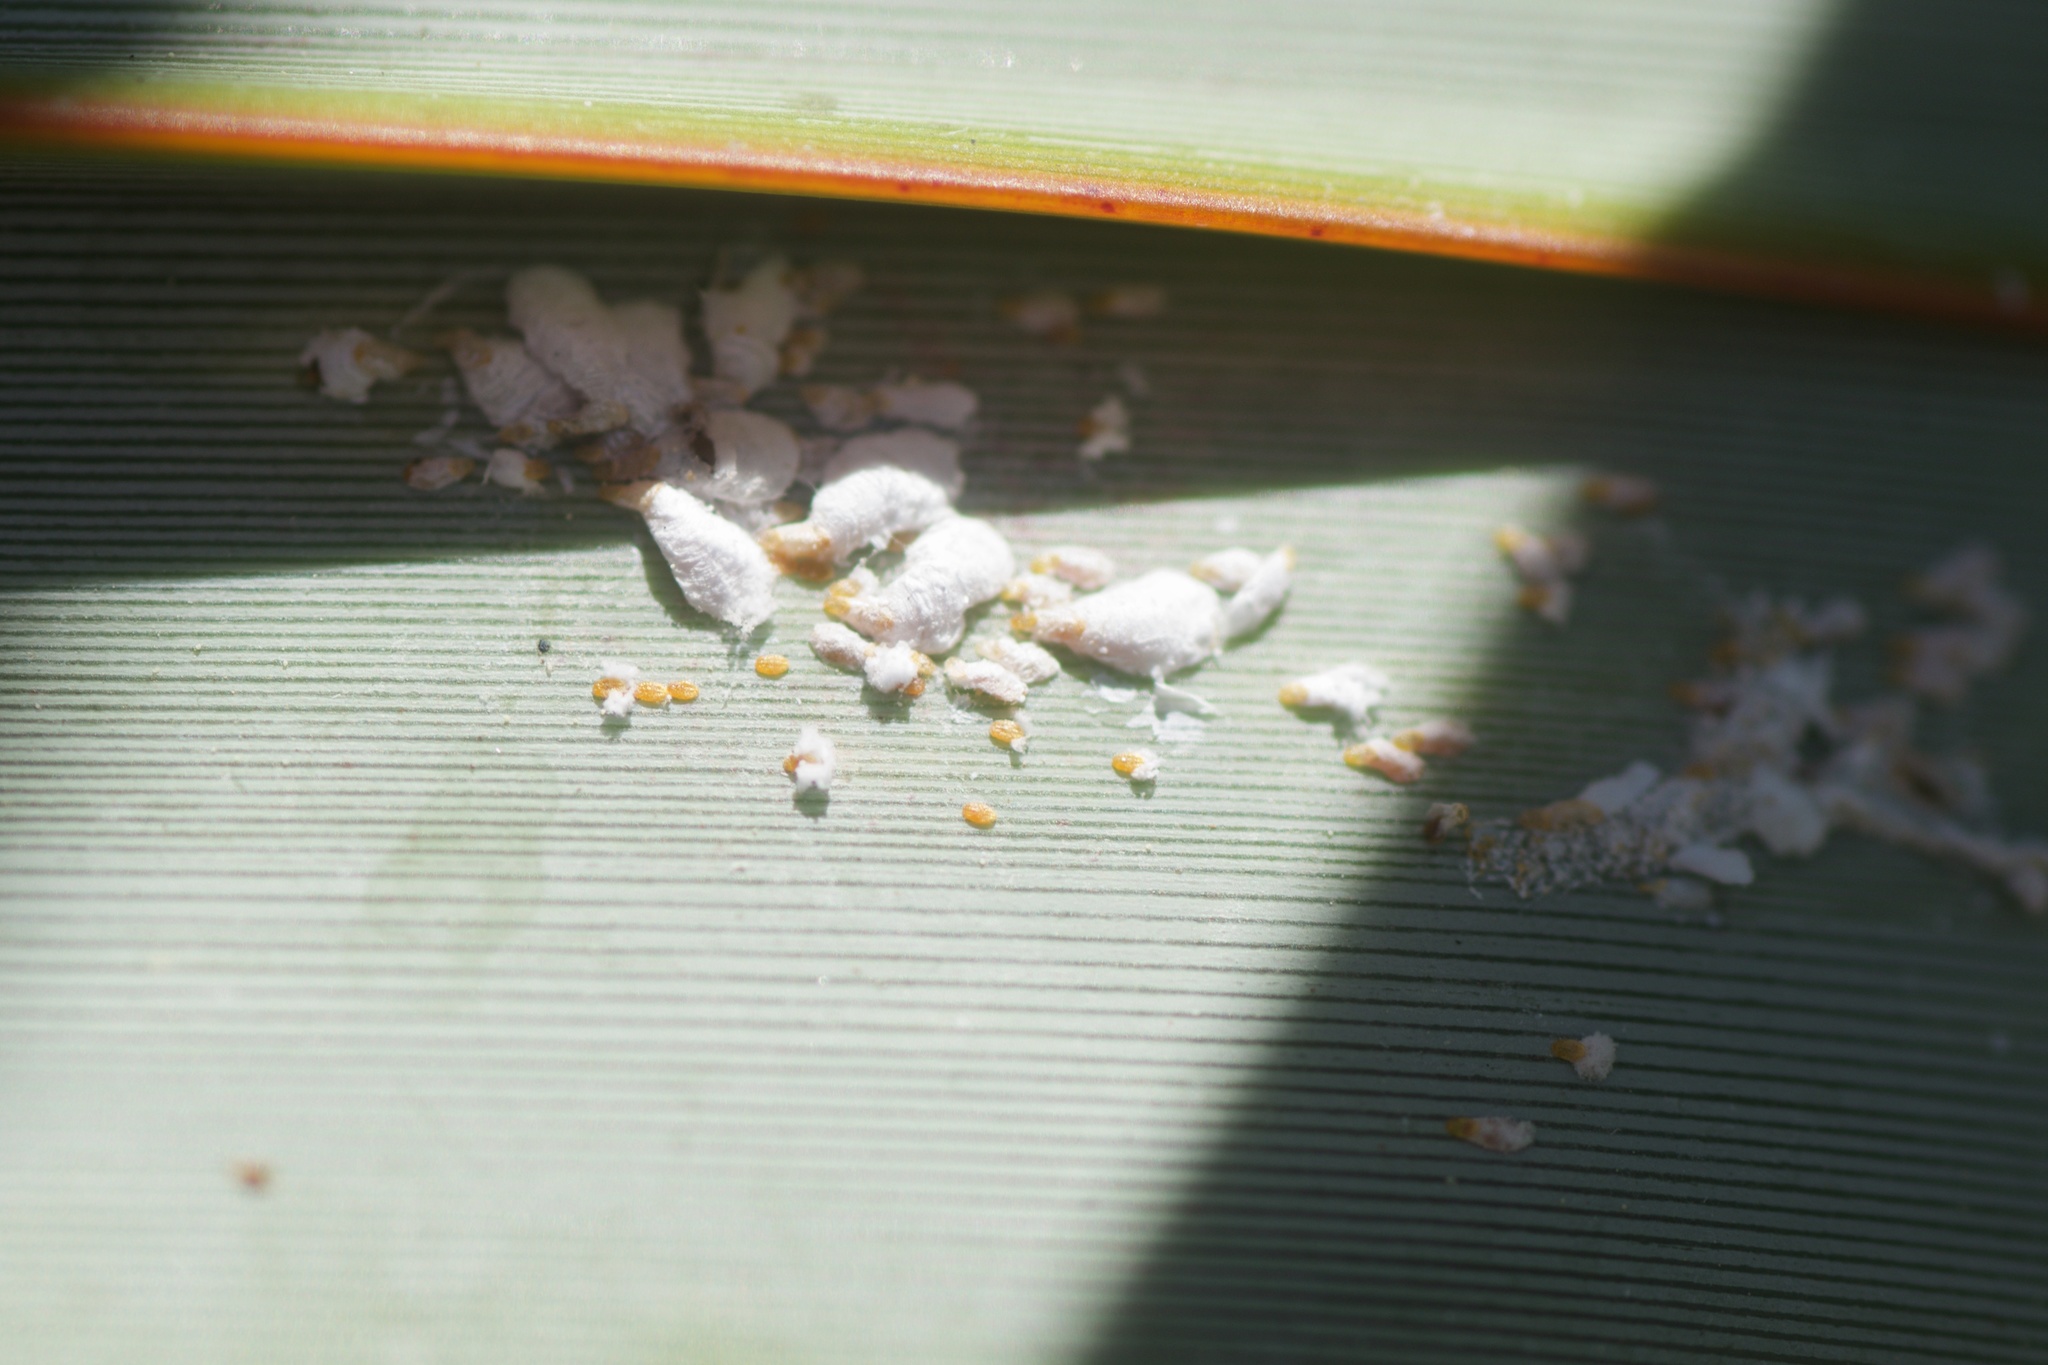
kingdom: Animalia
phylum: Arthropoda
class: Insecta
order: Hemiptera
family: Diaspididae
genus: Poliaspis
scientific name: Poliaspis floccosa
